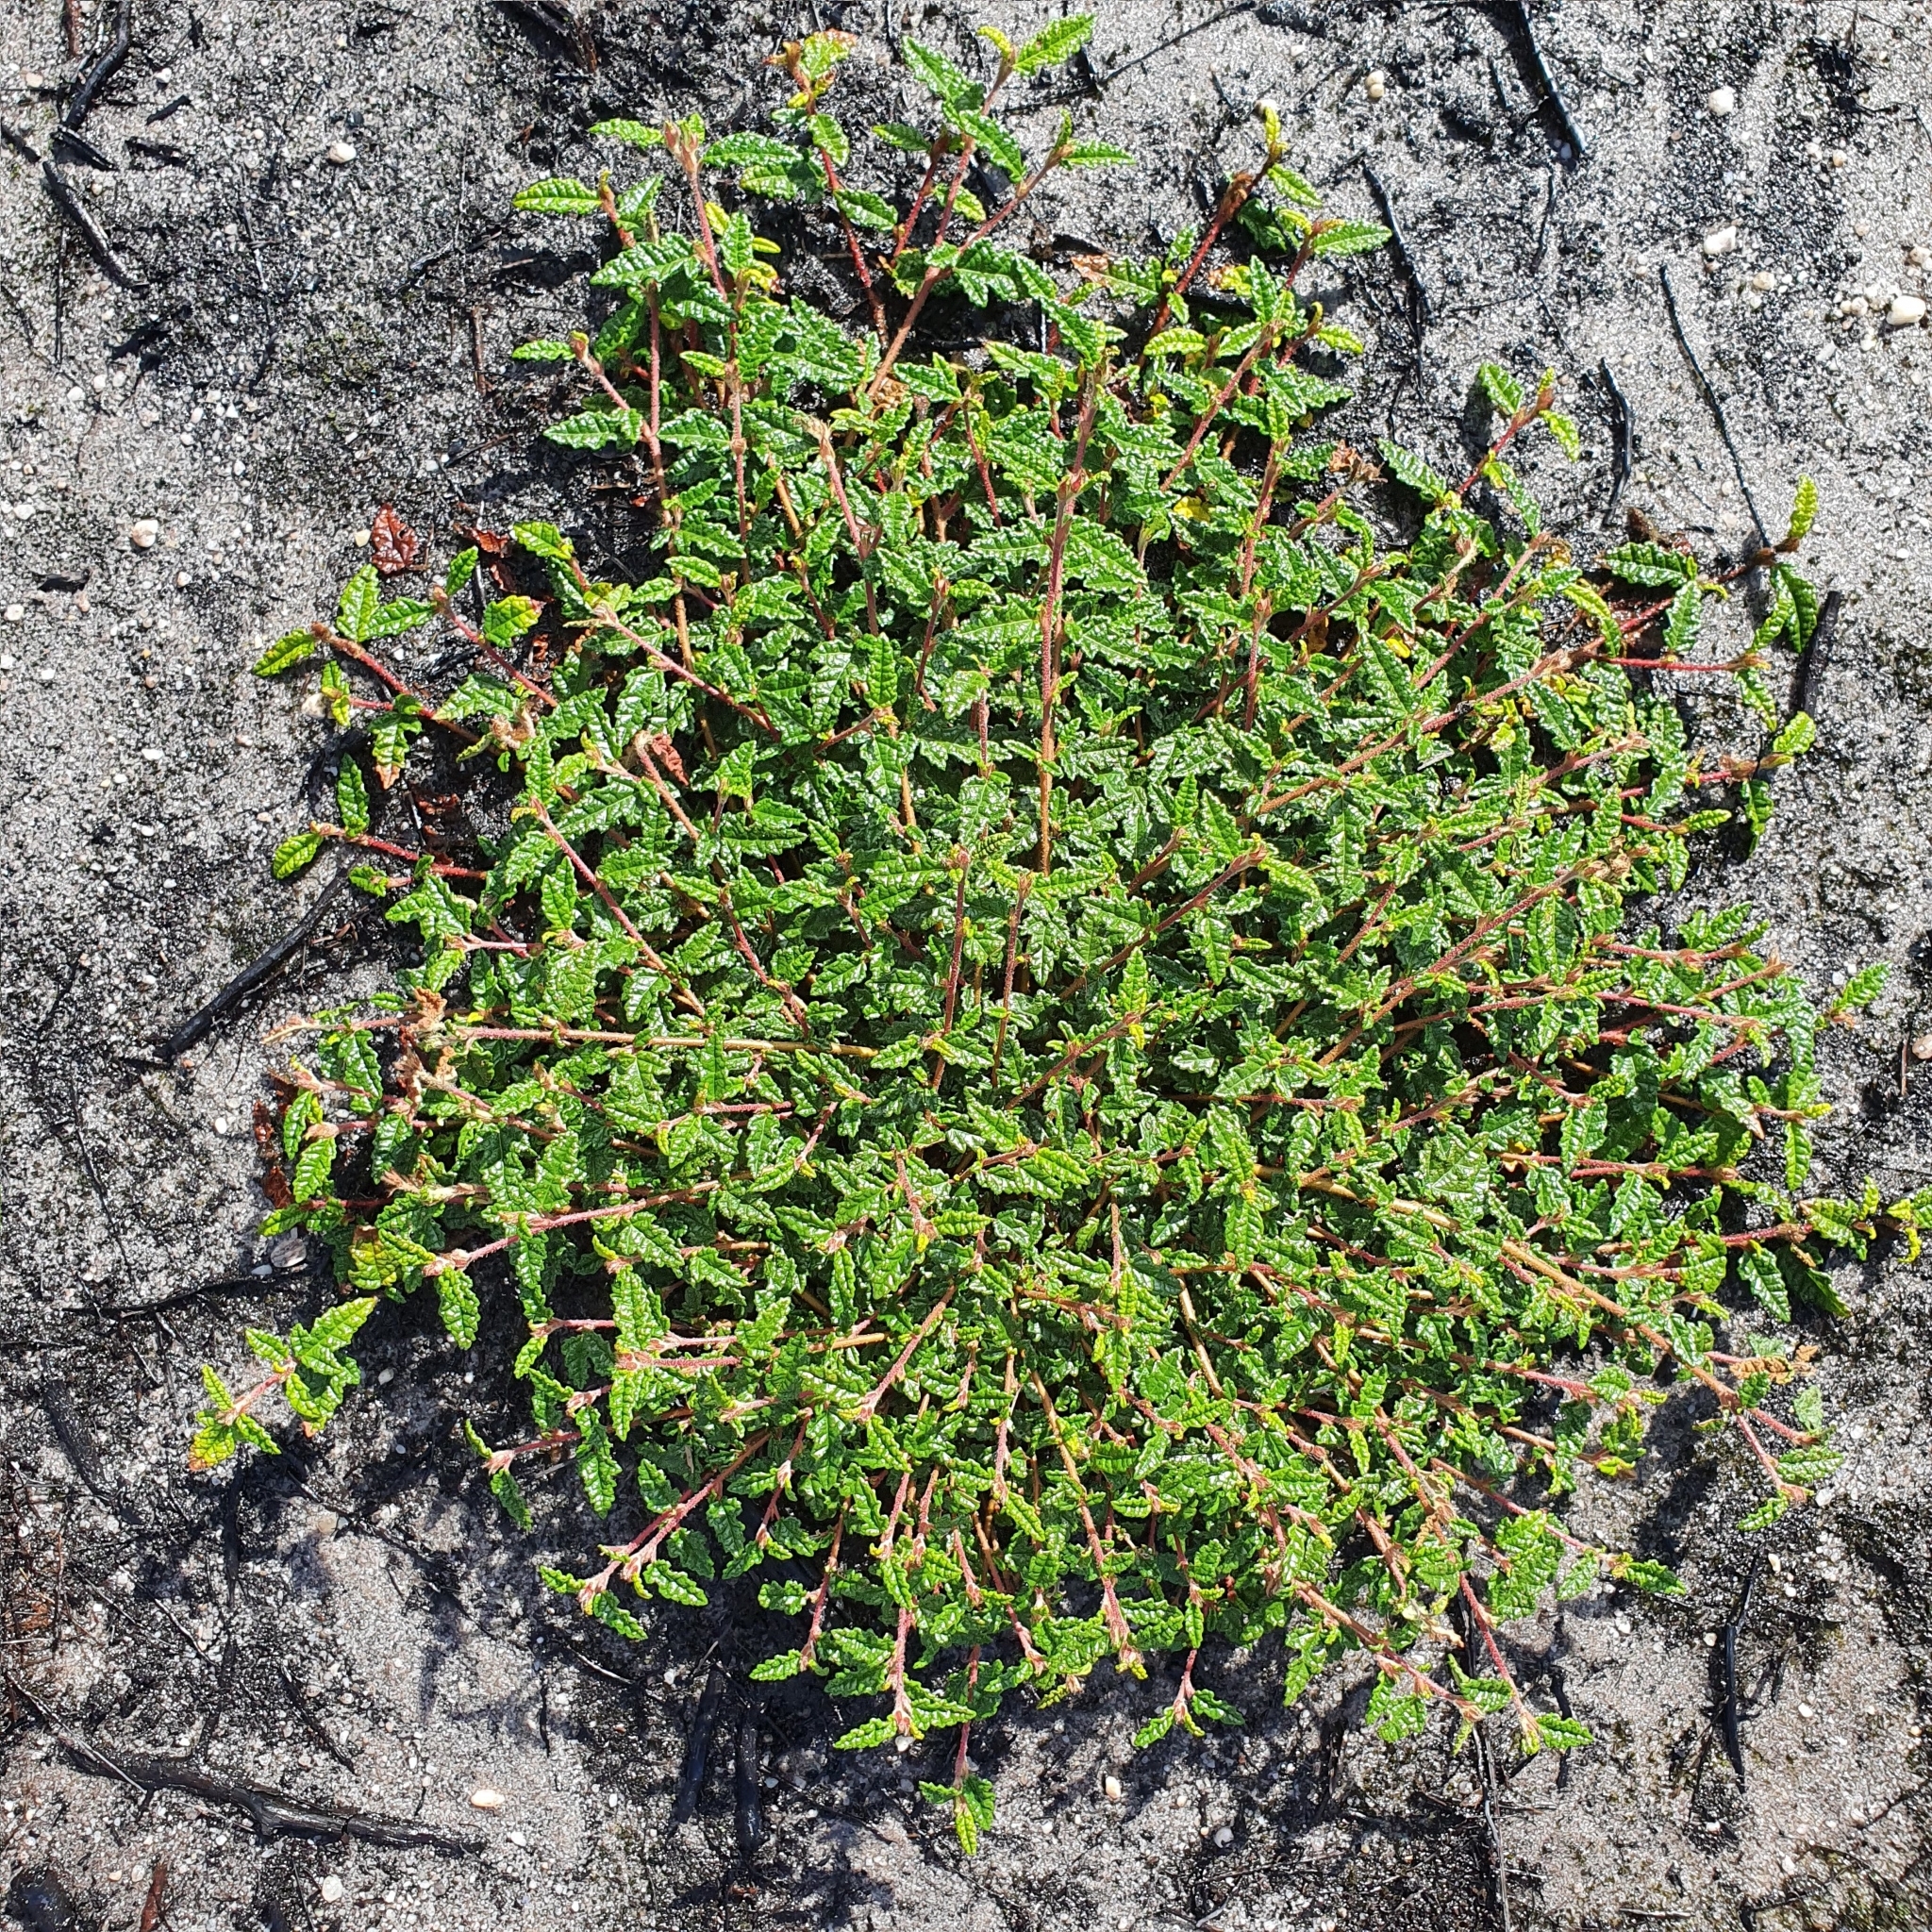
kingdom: Plantae
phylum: Tracheophyta
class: Magnoliopsida
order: Malvales
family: Malvaceae
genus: Commersonia
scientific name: Commersonia hermanniifolia
